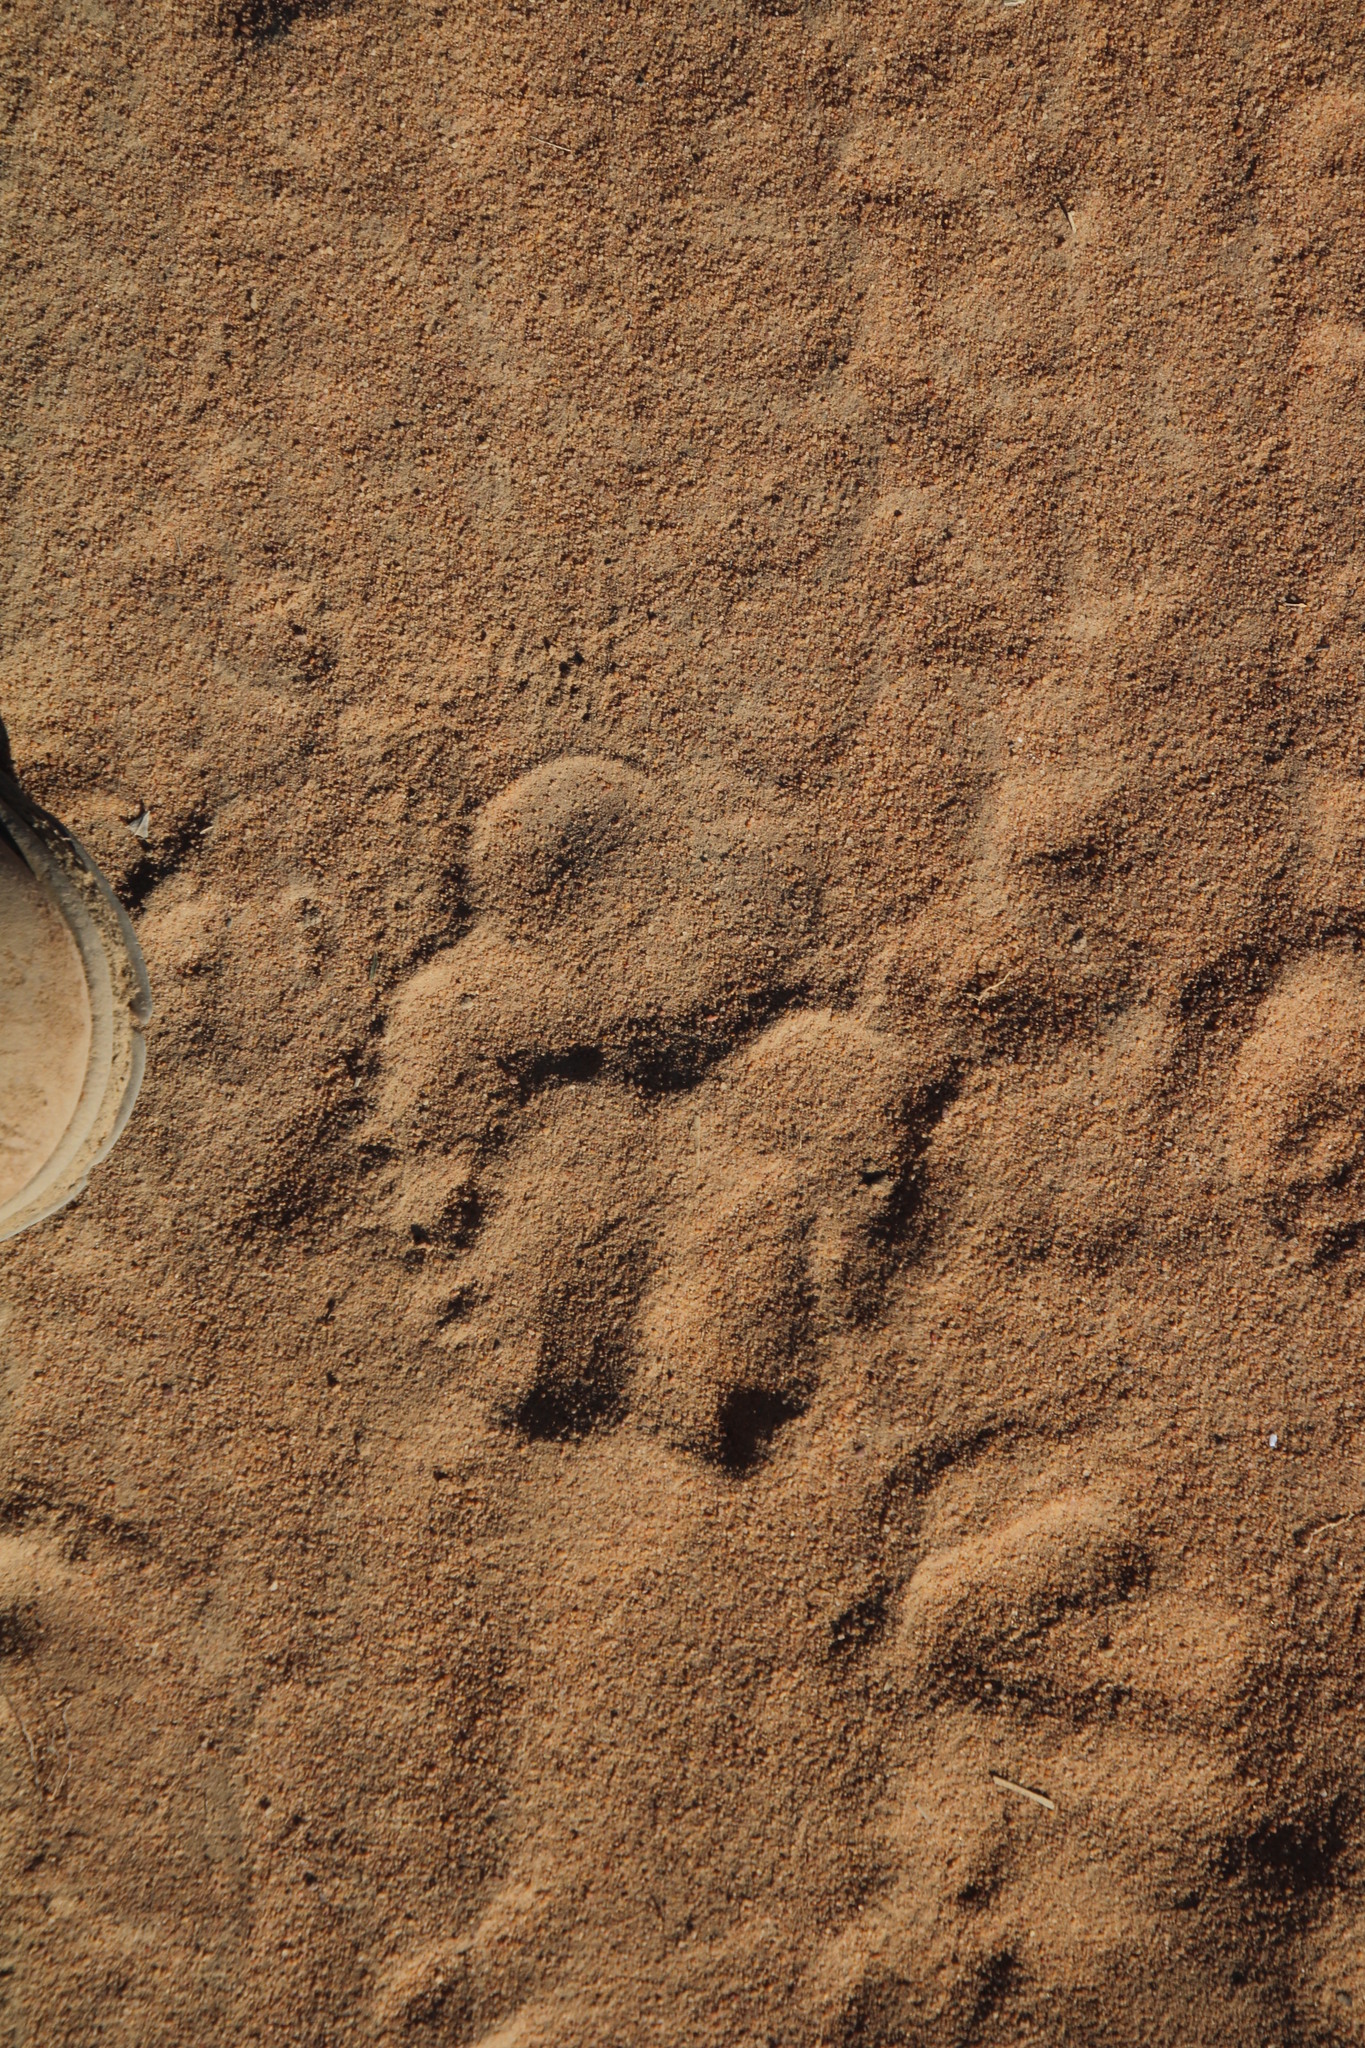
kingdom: Animalia
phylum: Chordata
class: Mammalia
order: Carnivora
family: Hyaenidae
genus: Hyaena
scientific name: Hyaena brunnea
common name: Brown hyena
